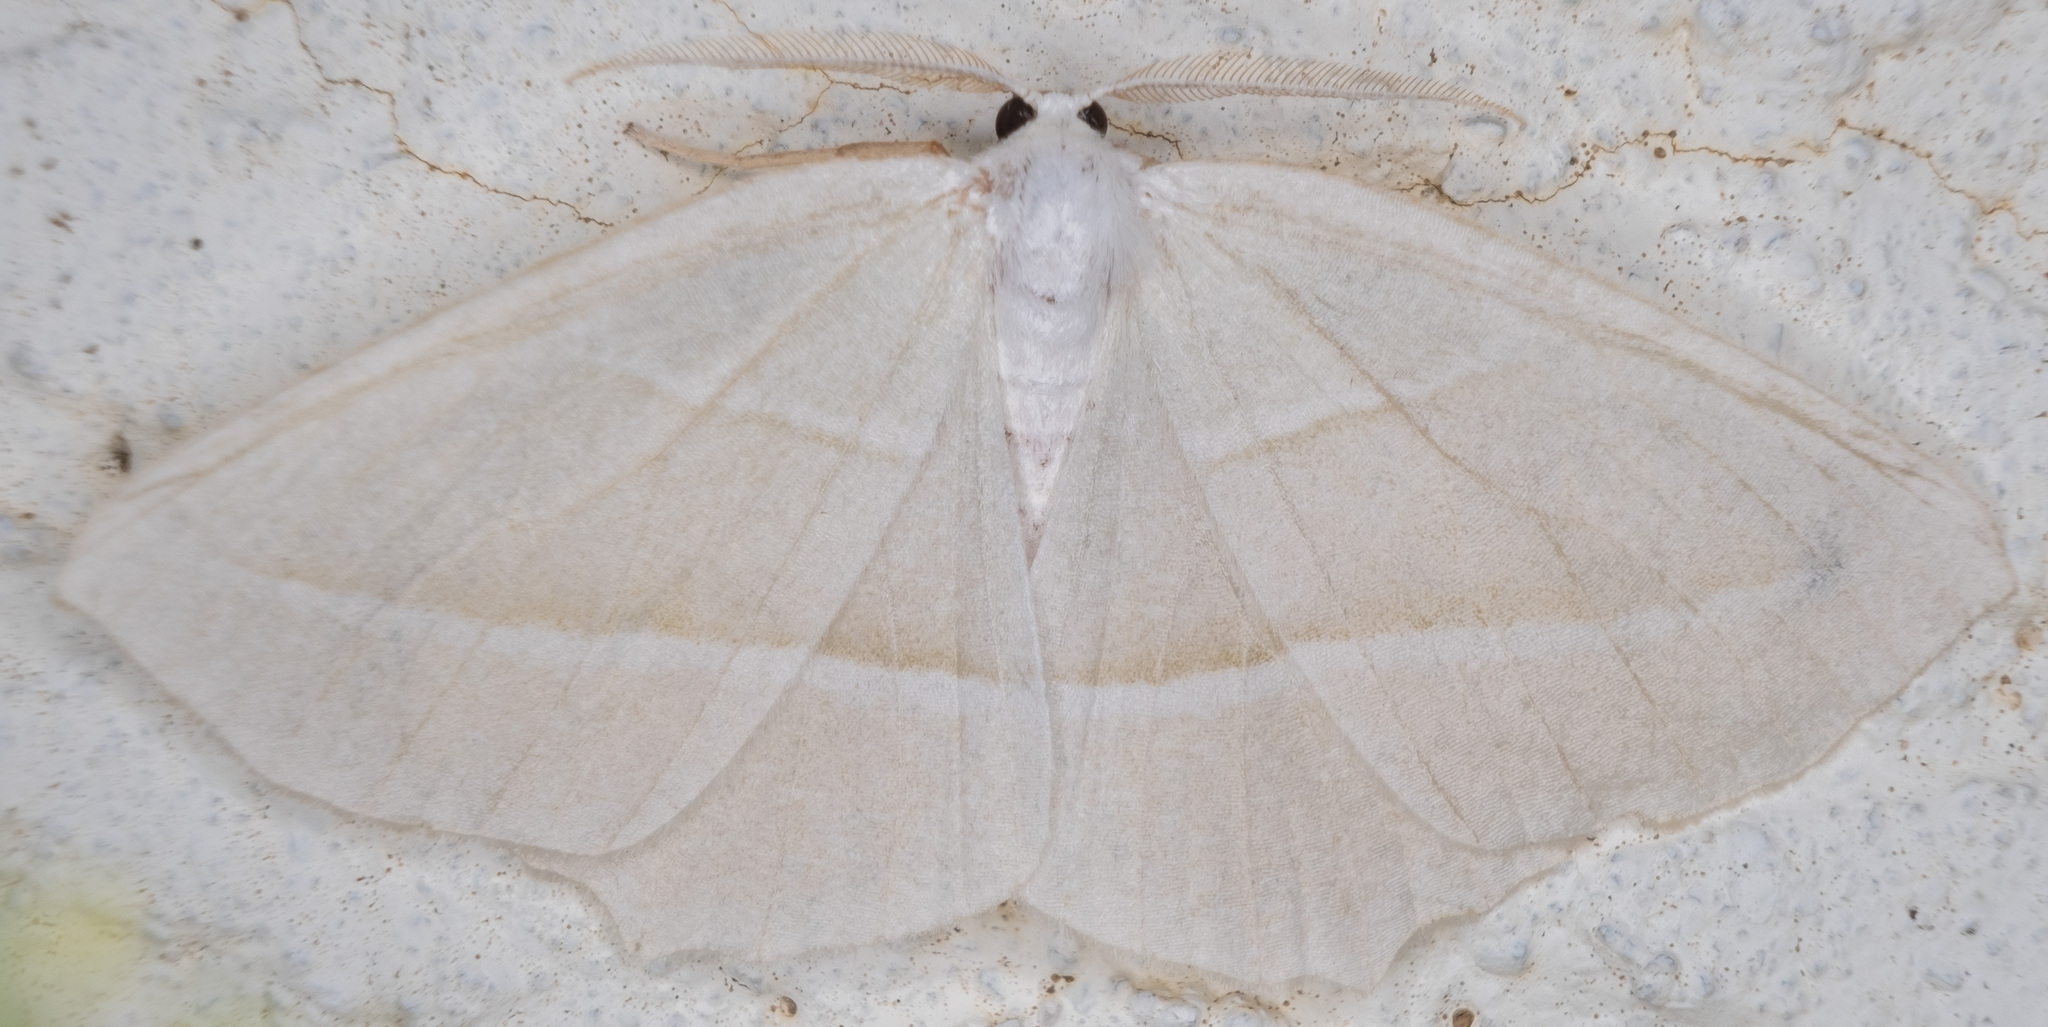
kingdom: Animalia
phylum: Arthropoda
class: Insecta
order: Lepidoptera
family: Geometridae
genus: Campaea
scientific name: Campaea perlata
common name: Fringed looper
